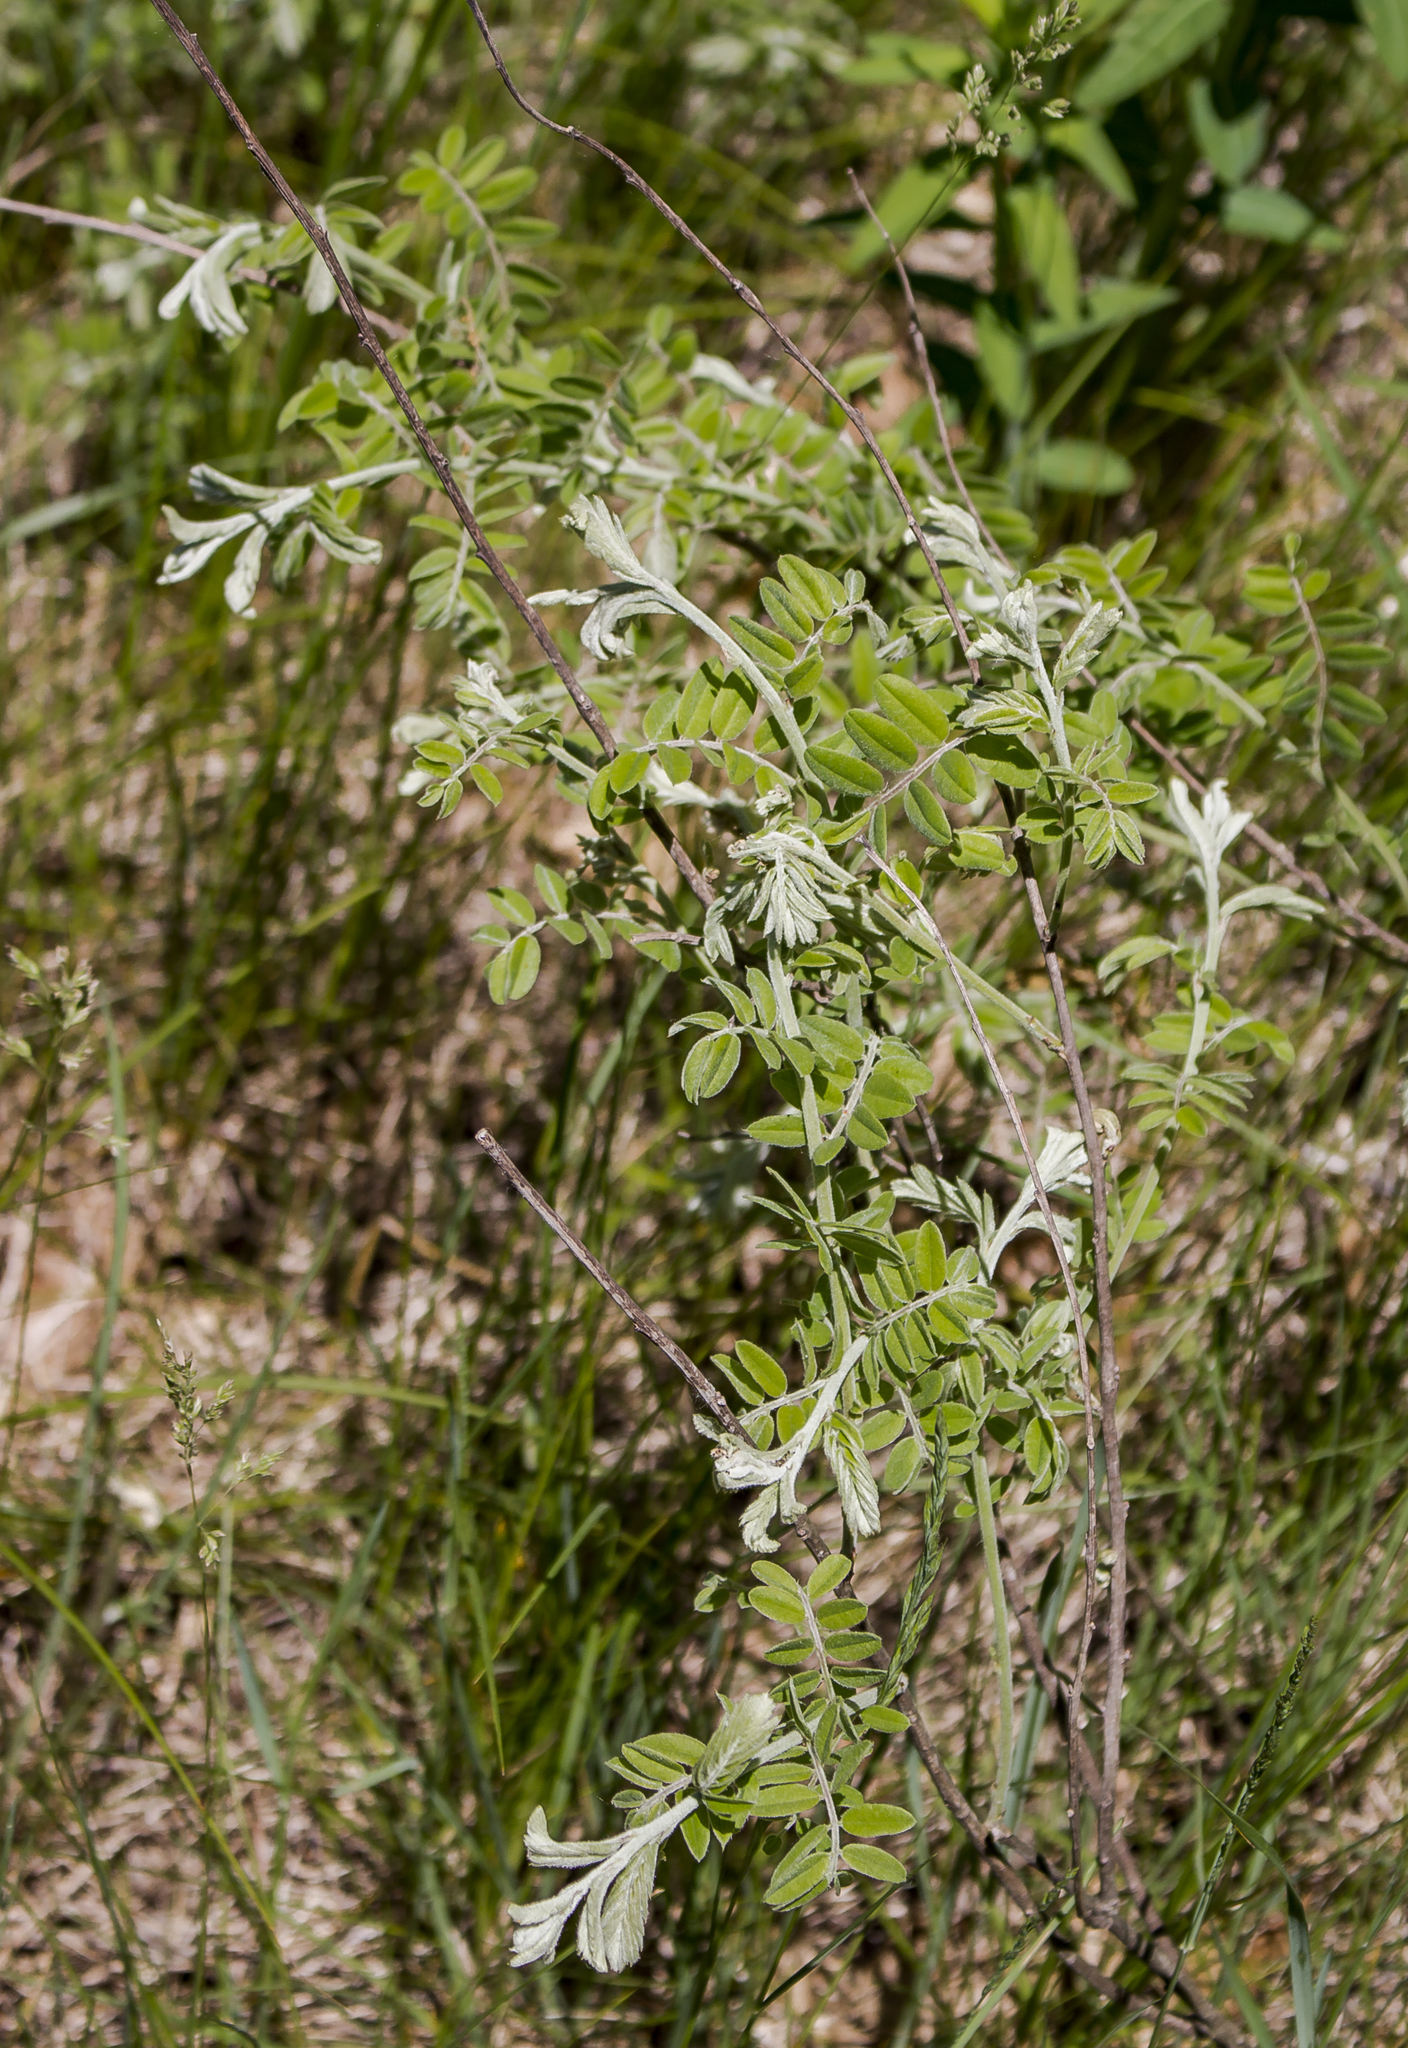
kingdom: Plantae
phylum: Tracheophyta
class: Magnoliopsida
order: Fabales
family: Fabaceae
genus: Amorpha
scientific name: Amorpha canescens
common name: Leadplant
